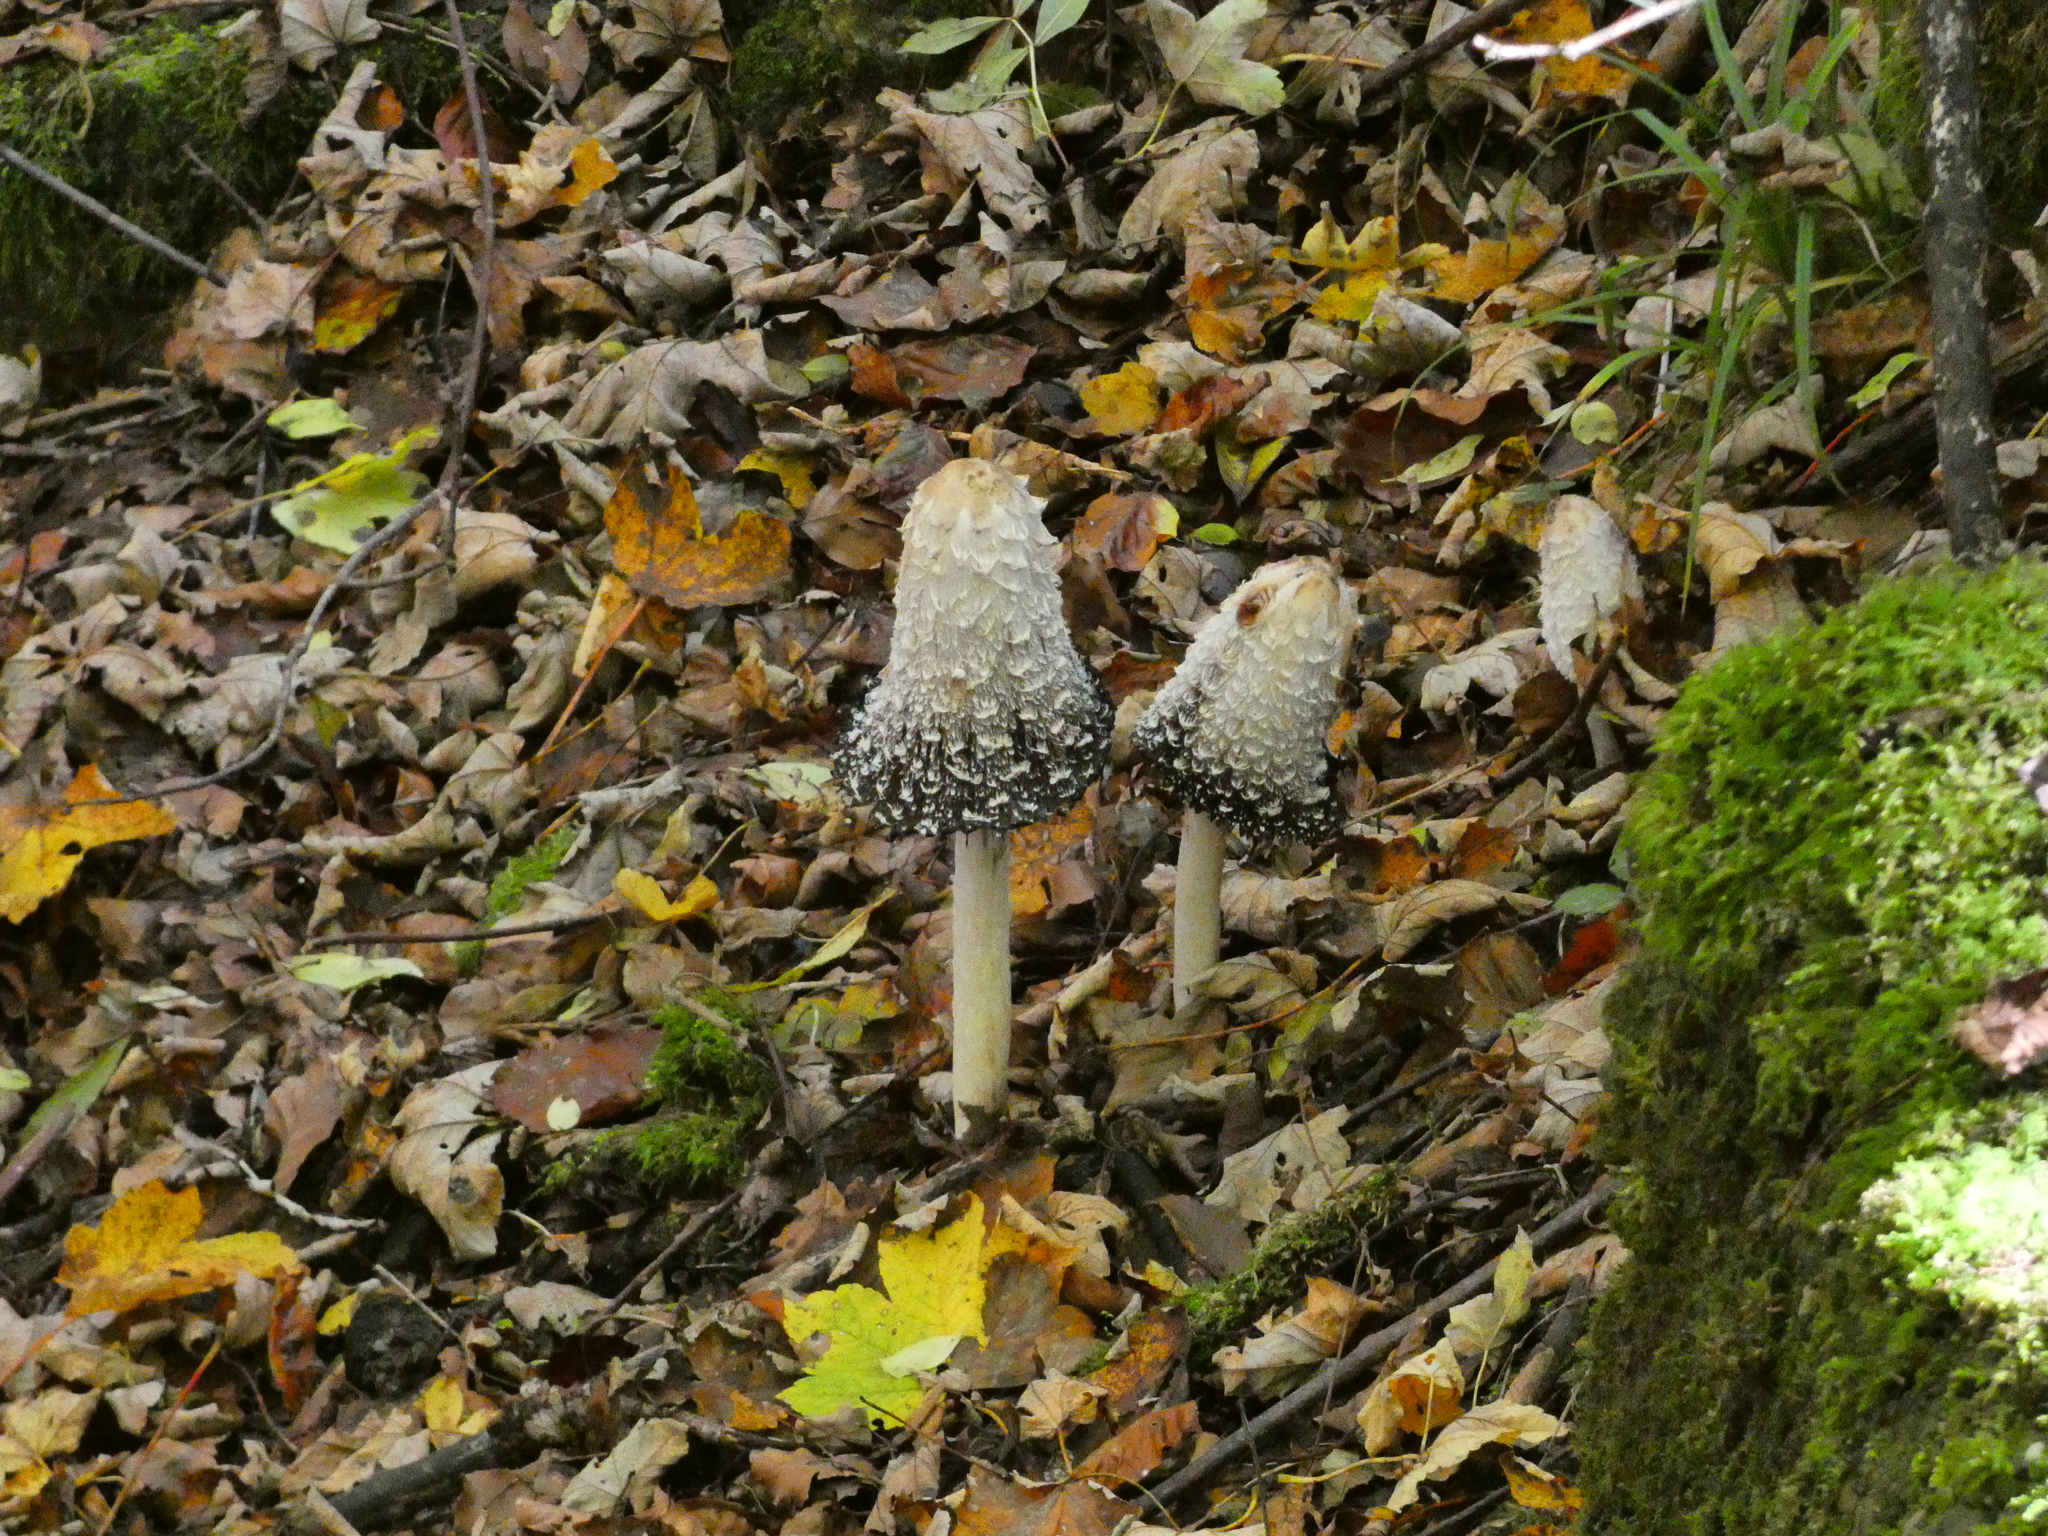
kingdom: Fungi
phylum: Basidiomycota
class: Agaricomycetes
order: Agaricales
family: Agaricaceae
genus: Coprinus
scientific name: Coprinus comatus
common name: Lawyer's wig
